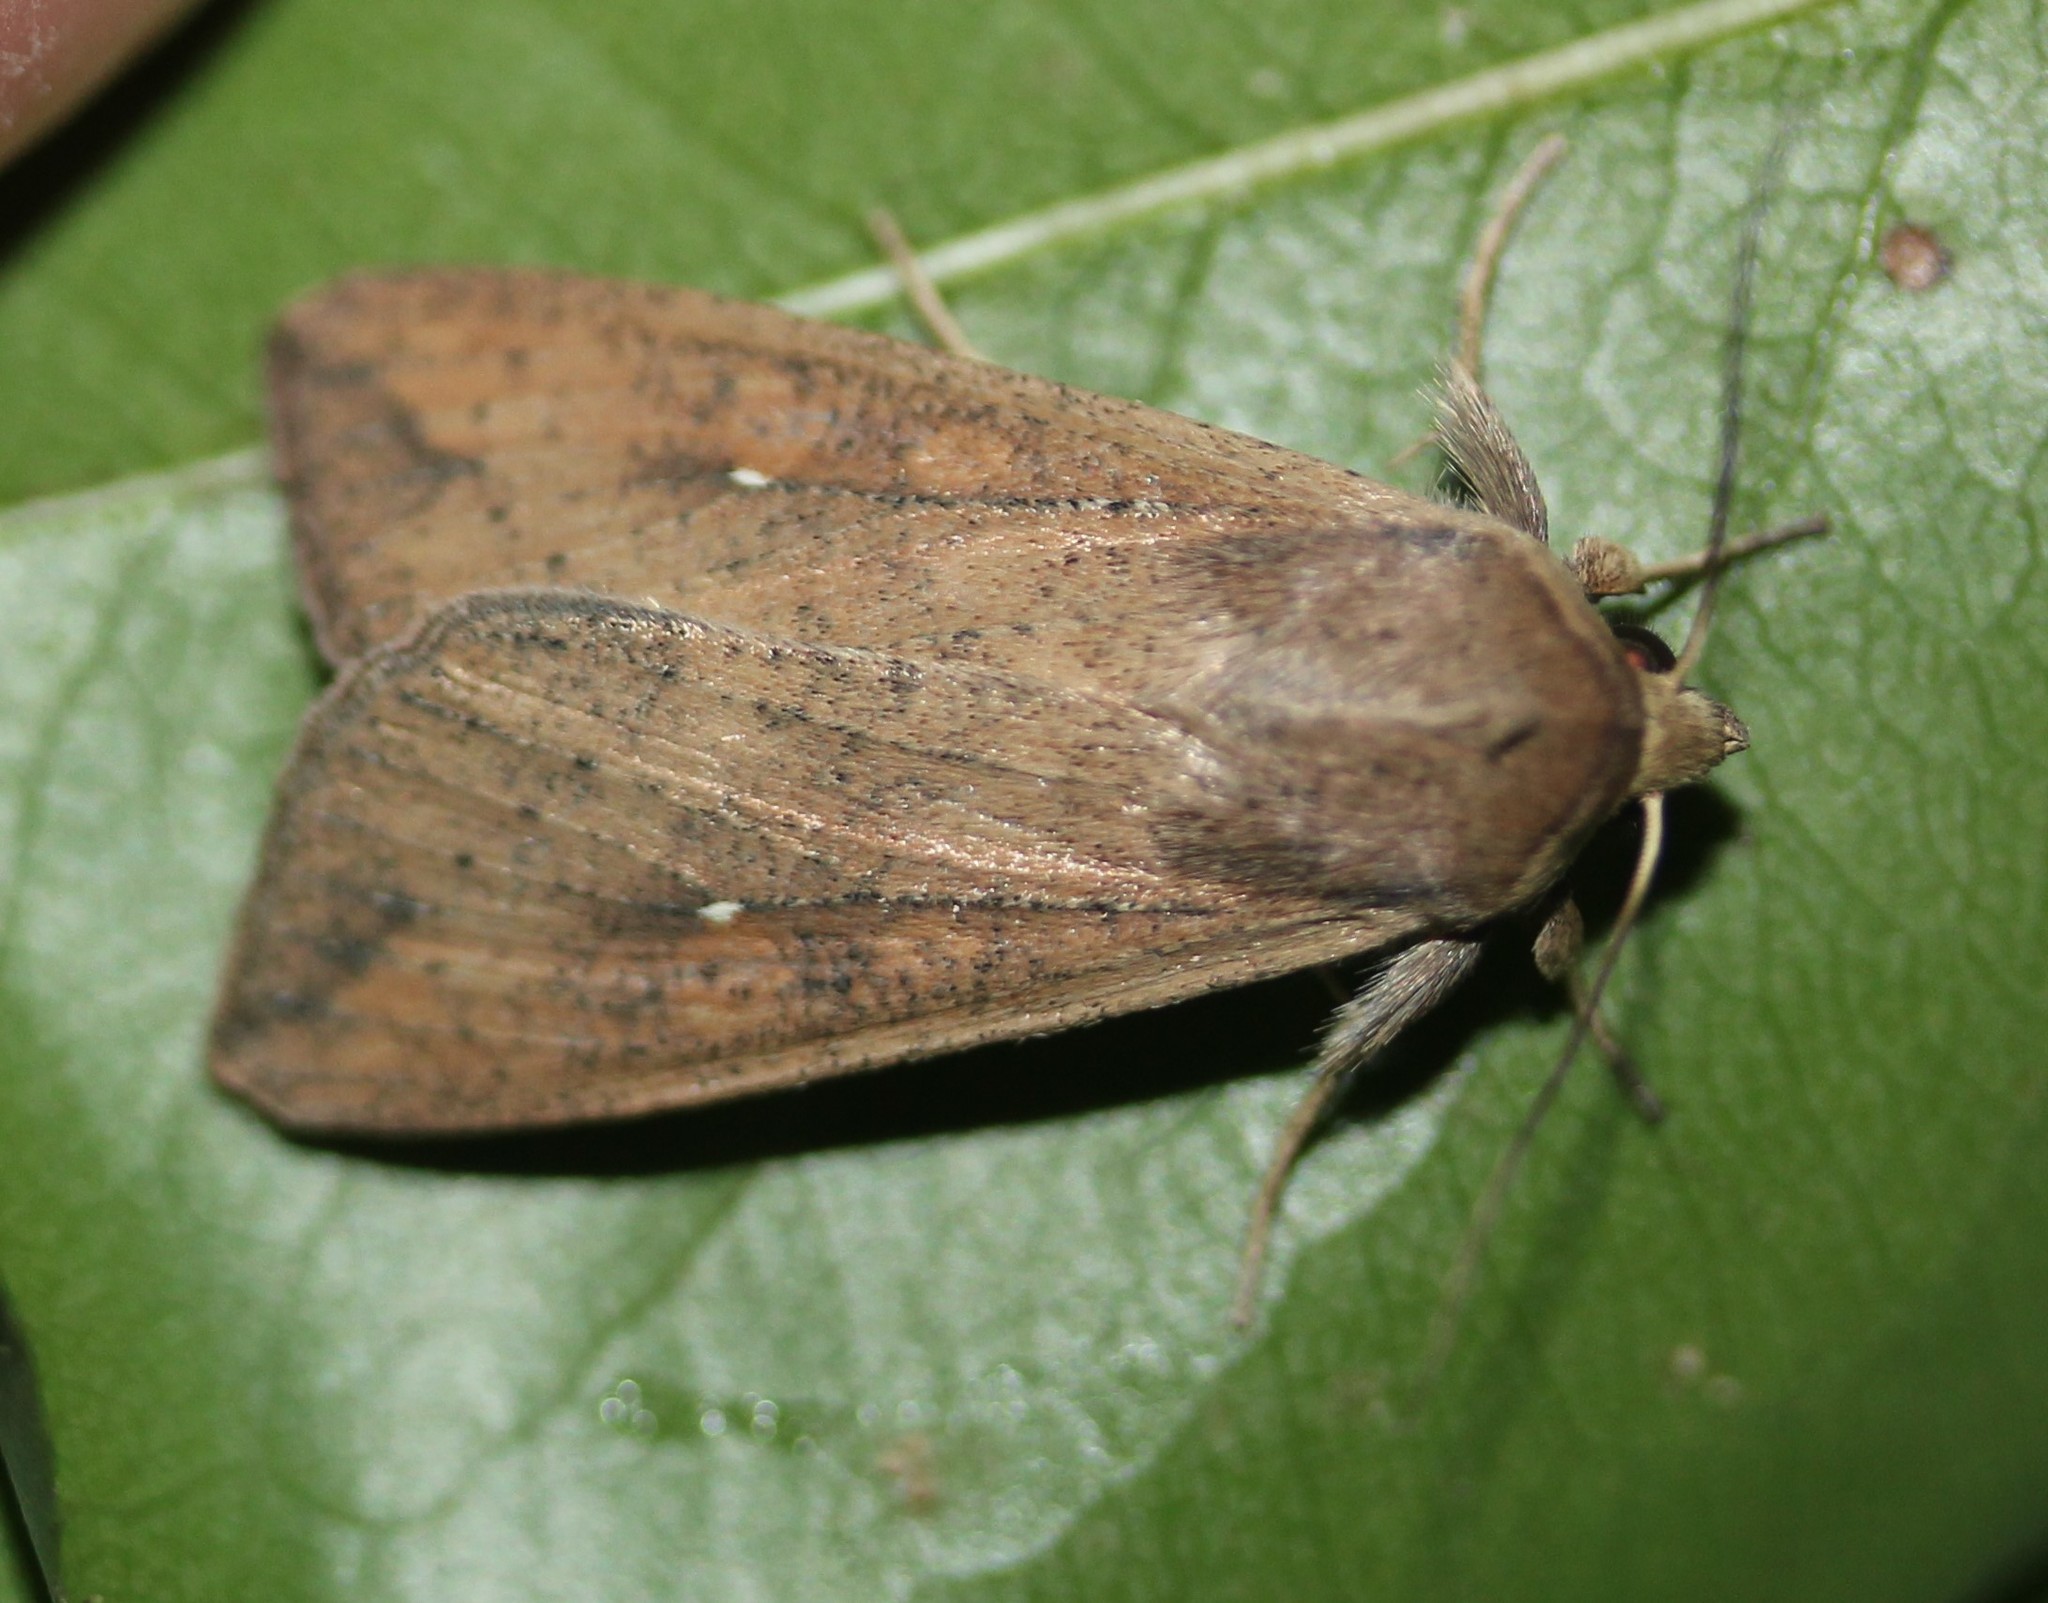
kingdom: Animalia
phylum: Arthropoda
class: Insecta
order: Lepidoptera
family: Noctuidae
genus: Mythimna
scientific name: Mythimna unipuncta
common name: White-speck
